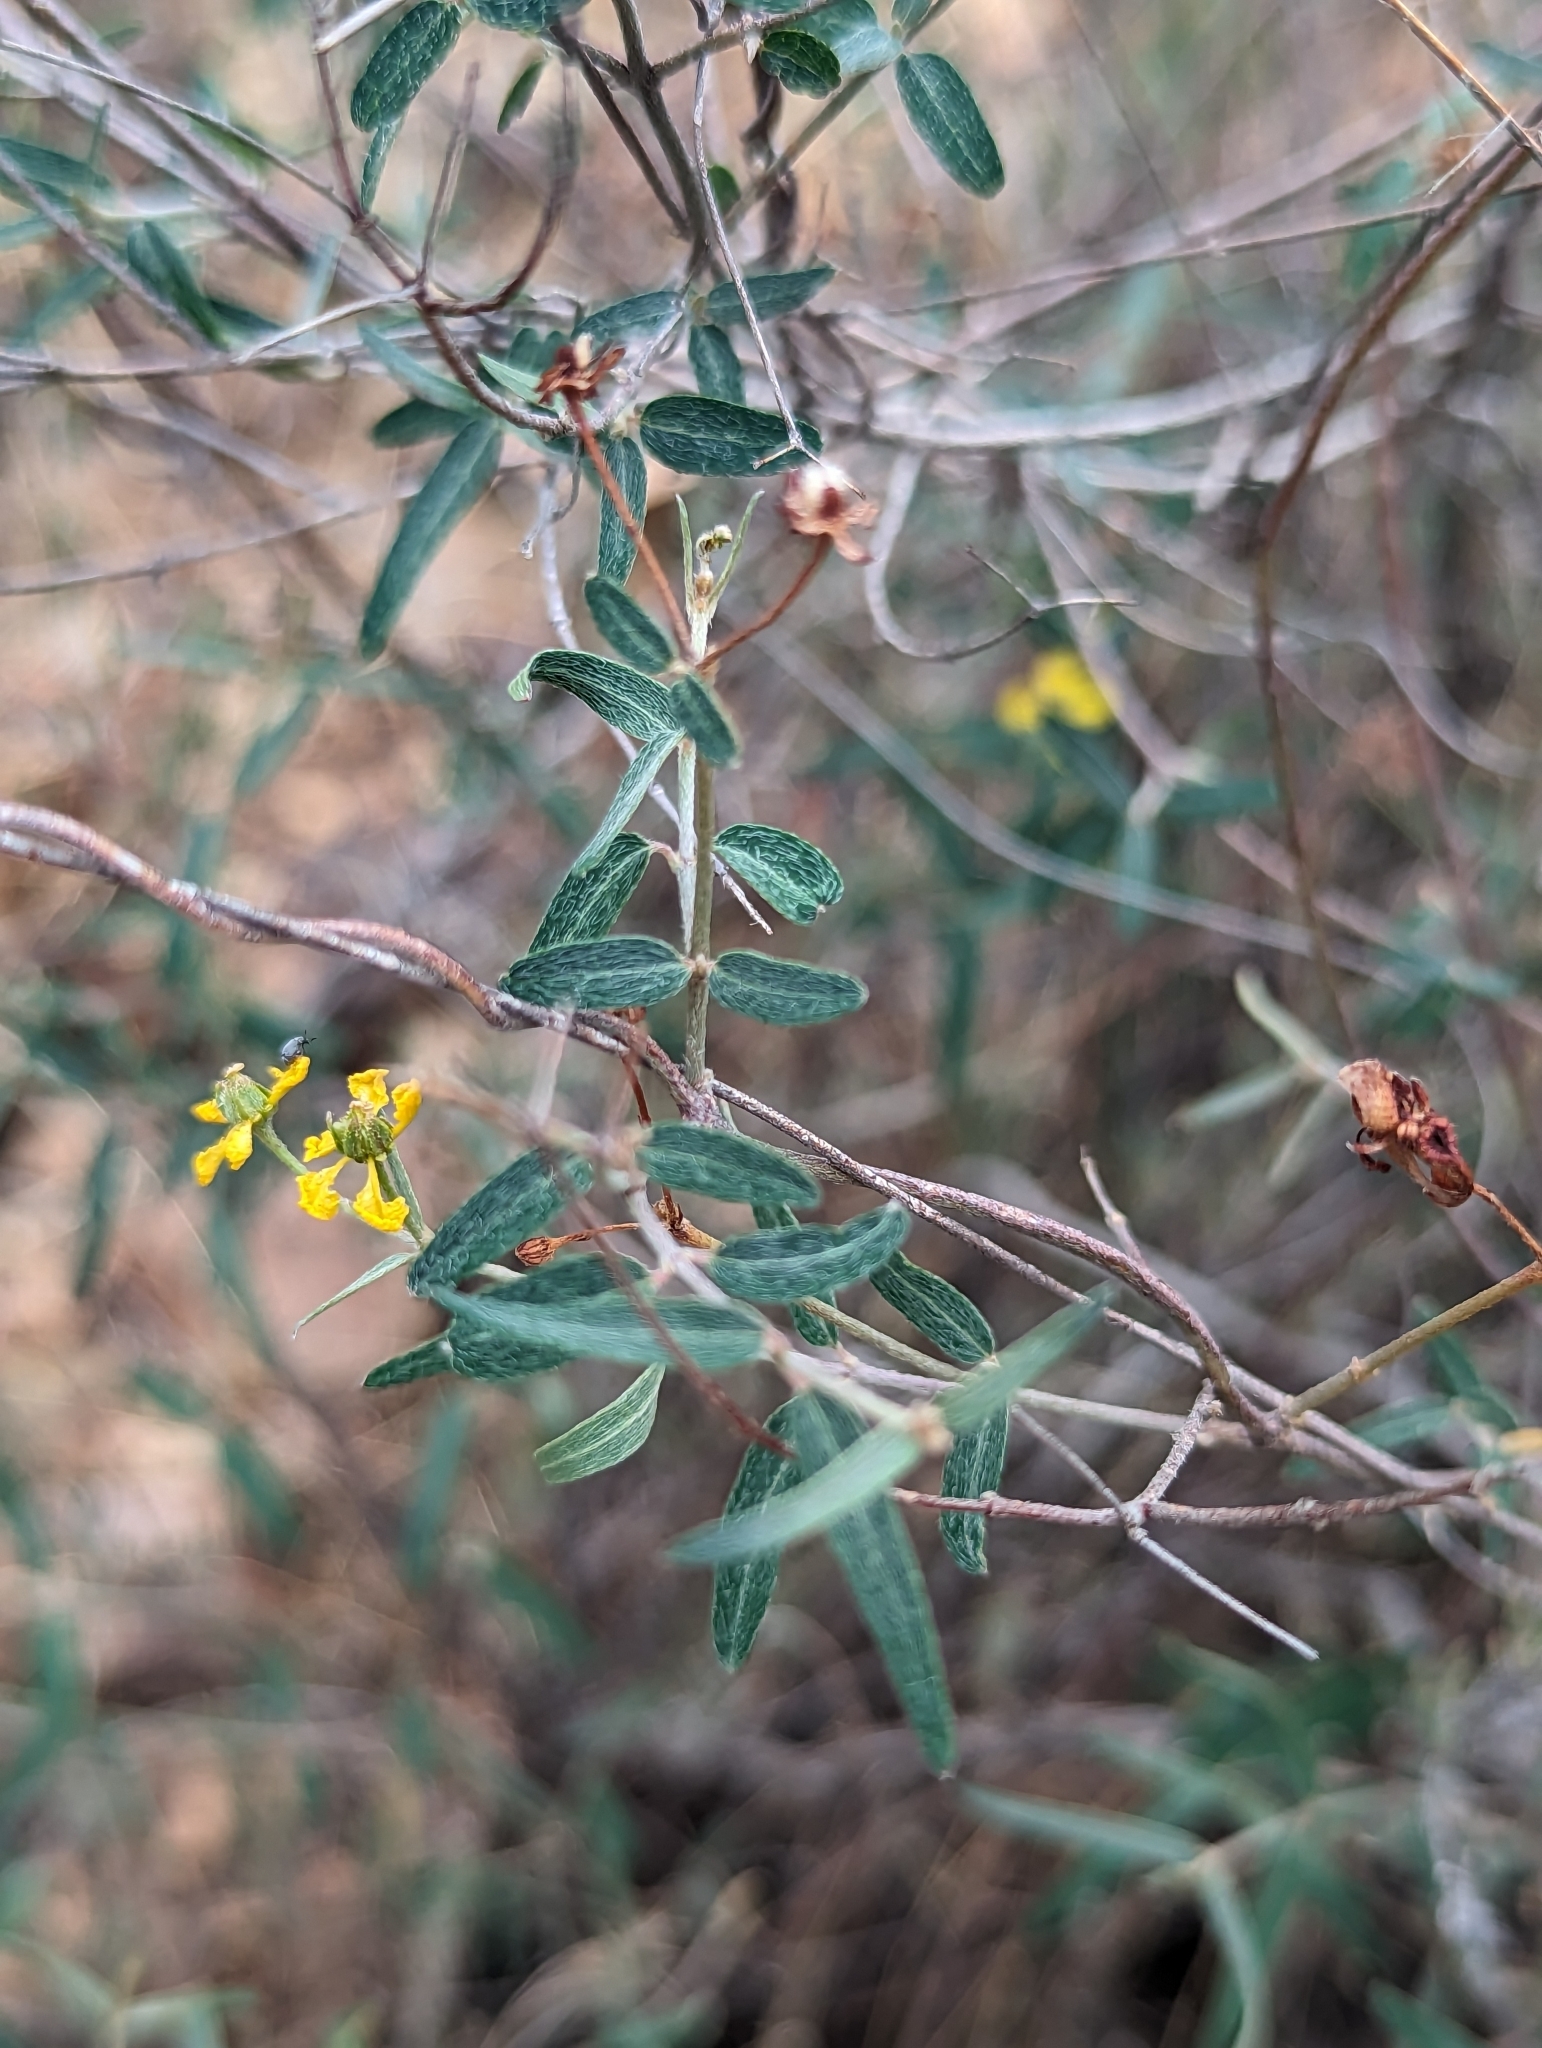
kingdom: Plantae
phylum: Tracheophyta
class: Magnoliopsida
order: Malpighiales
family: Malpighiaceae
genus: Cottsia
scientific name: Cottsia gracilis
